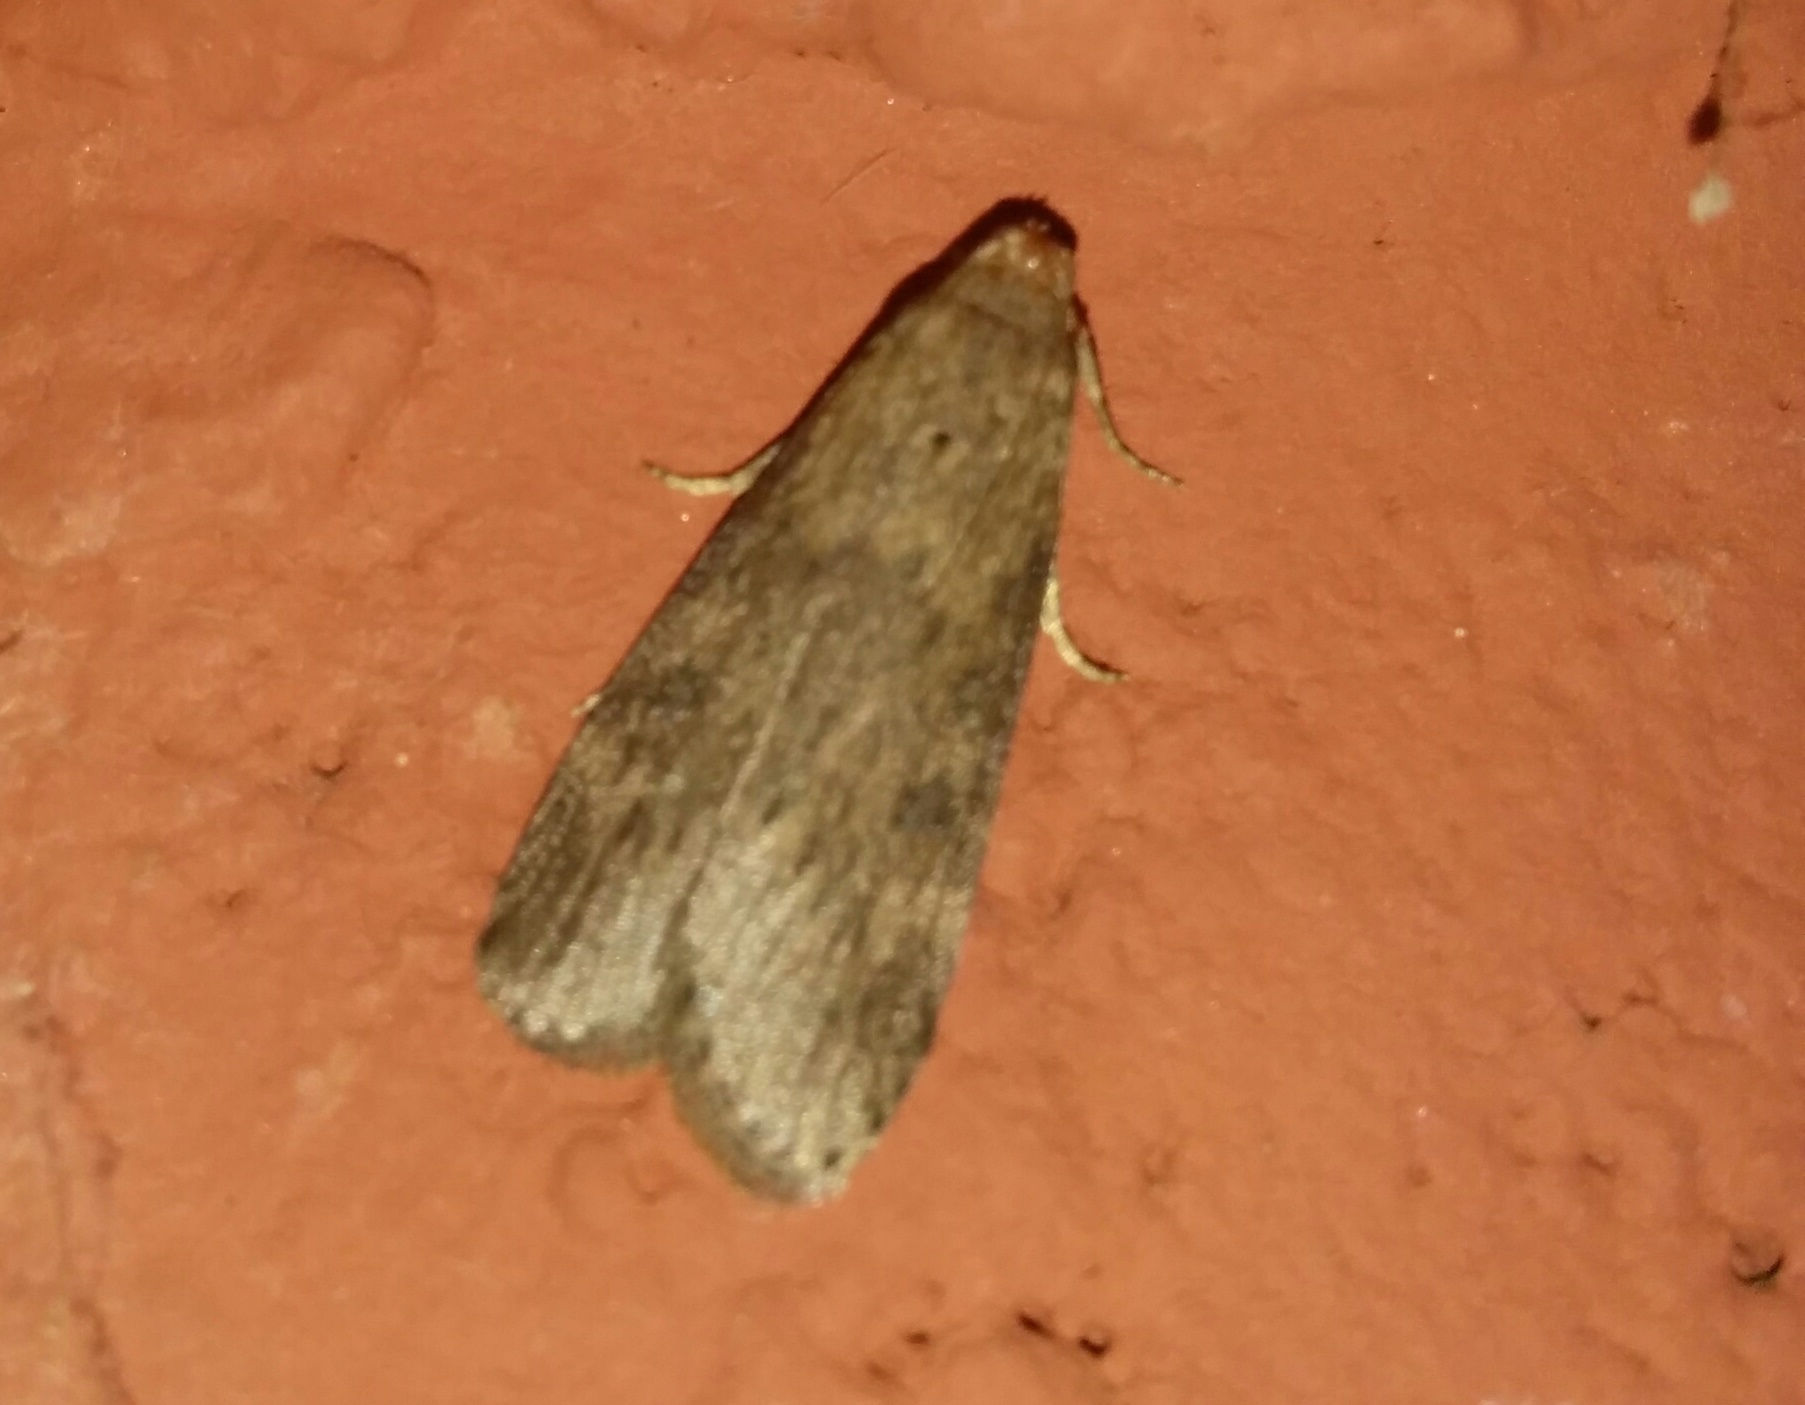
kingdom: Animalia
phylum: Arthropoda
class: Insecta
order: Lepidoptera
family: Pyralidae
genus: Lamoria
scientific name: Lamoria anella
